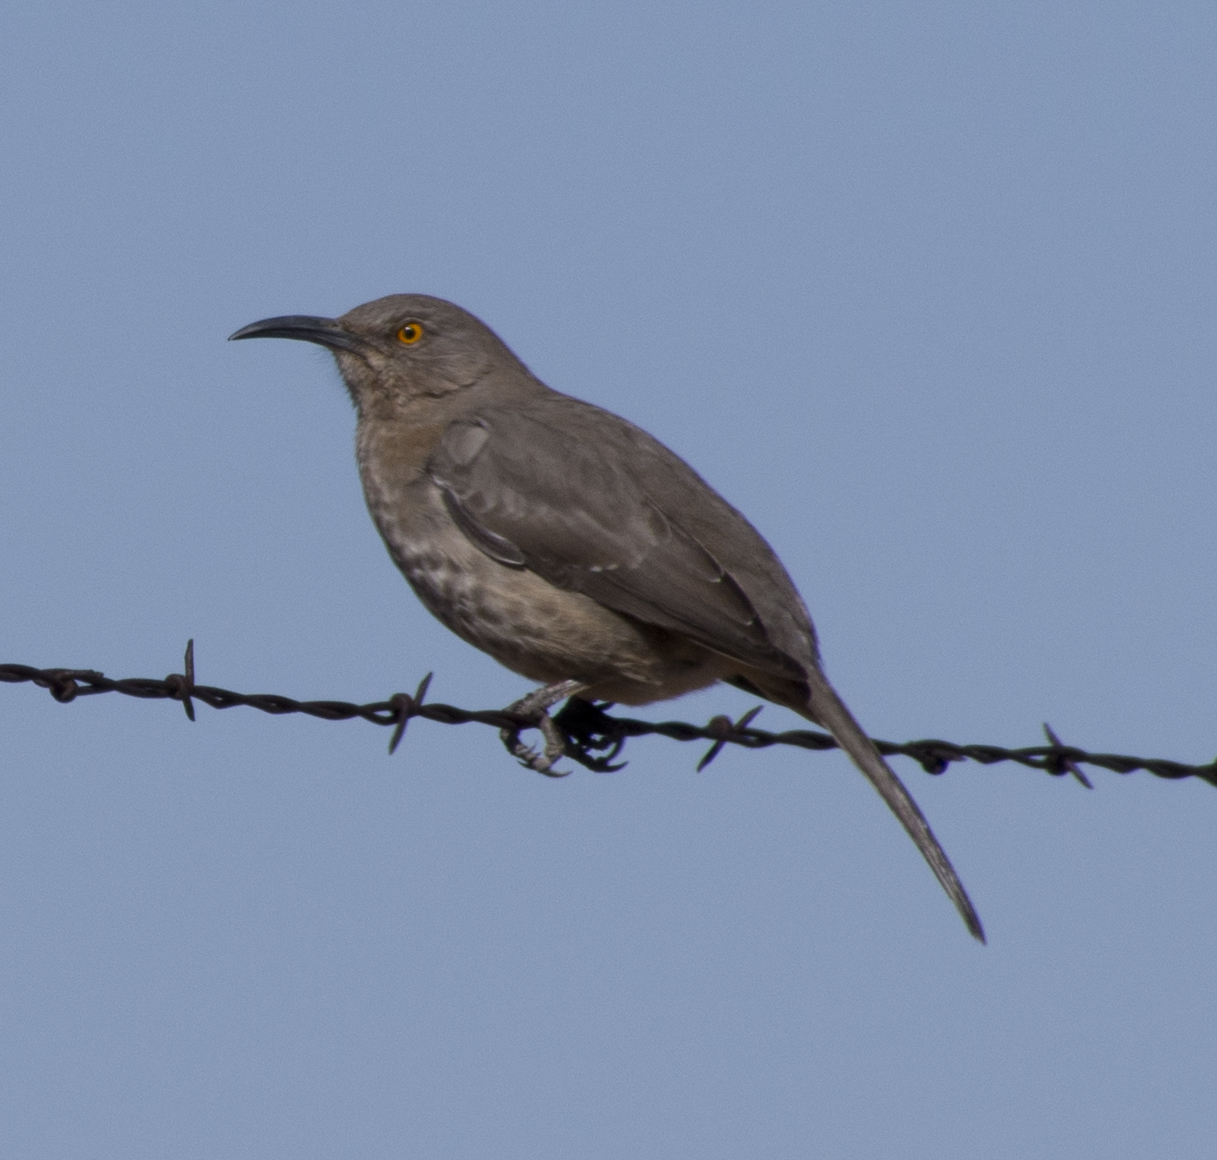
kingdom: Animalia
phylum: Chordata
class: Aves
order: Passeriformes
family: Mimidae
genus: Toxostoma
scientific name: Toxostoma curvirostre
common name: Curve-billed thrasher
